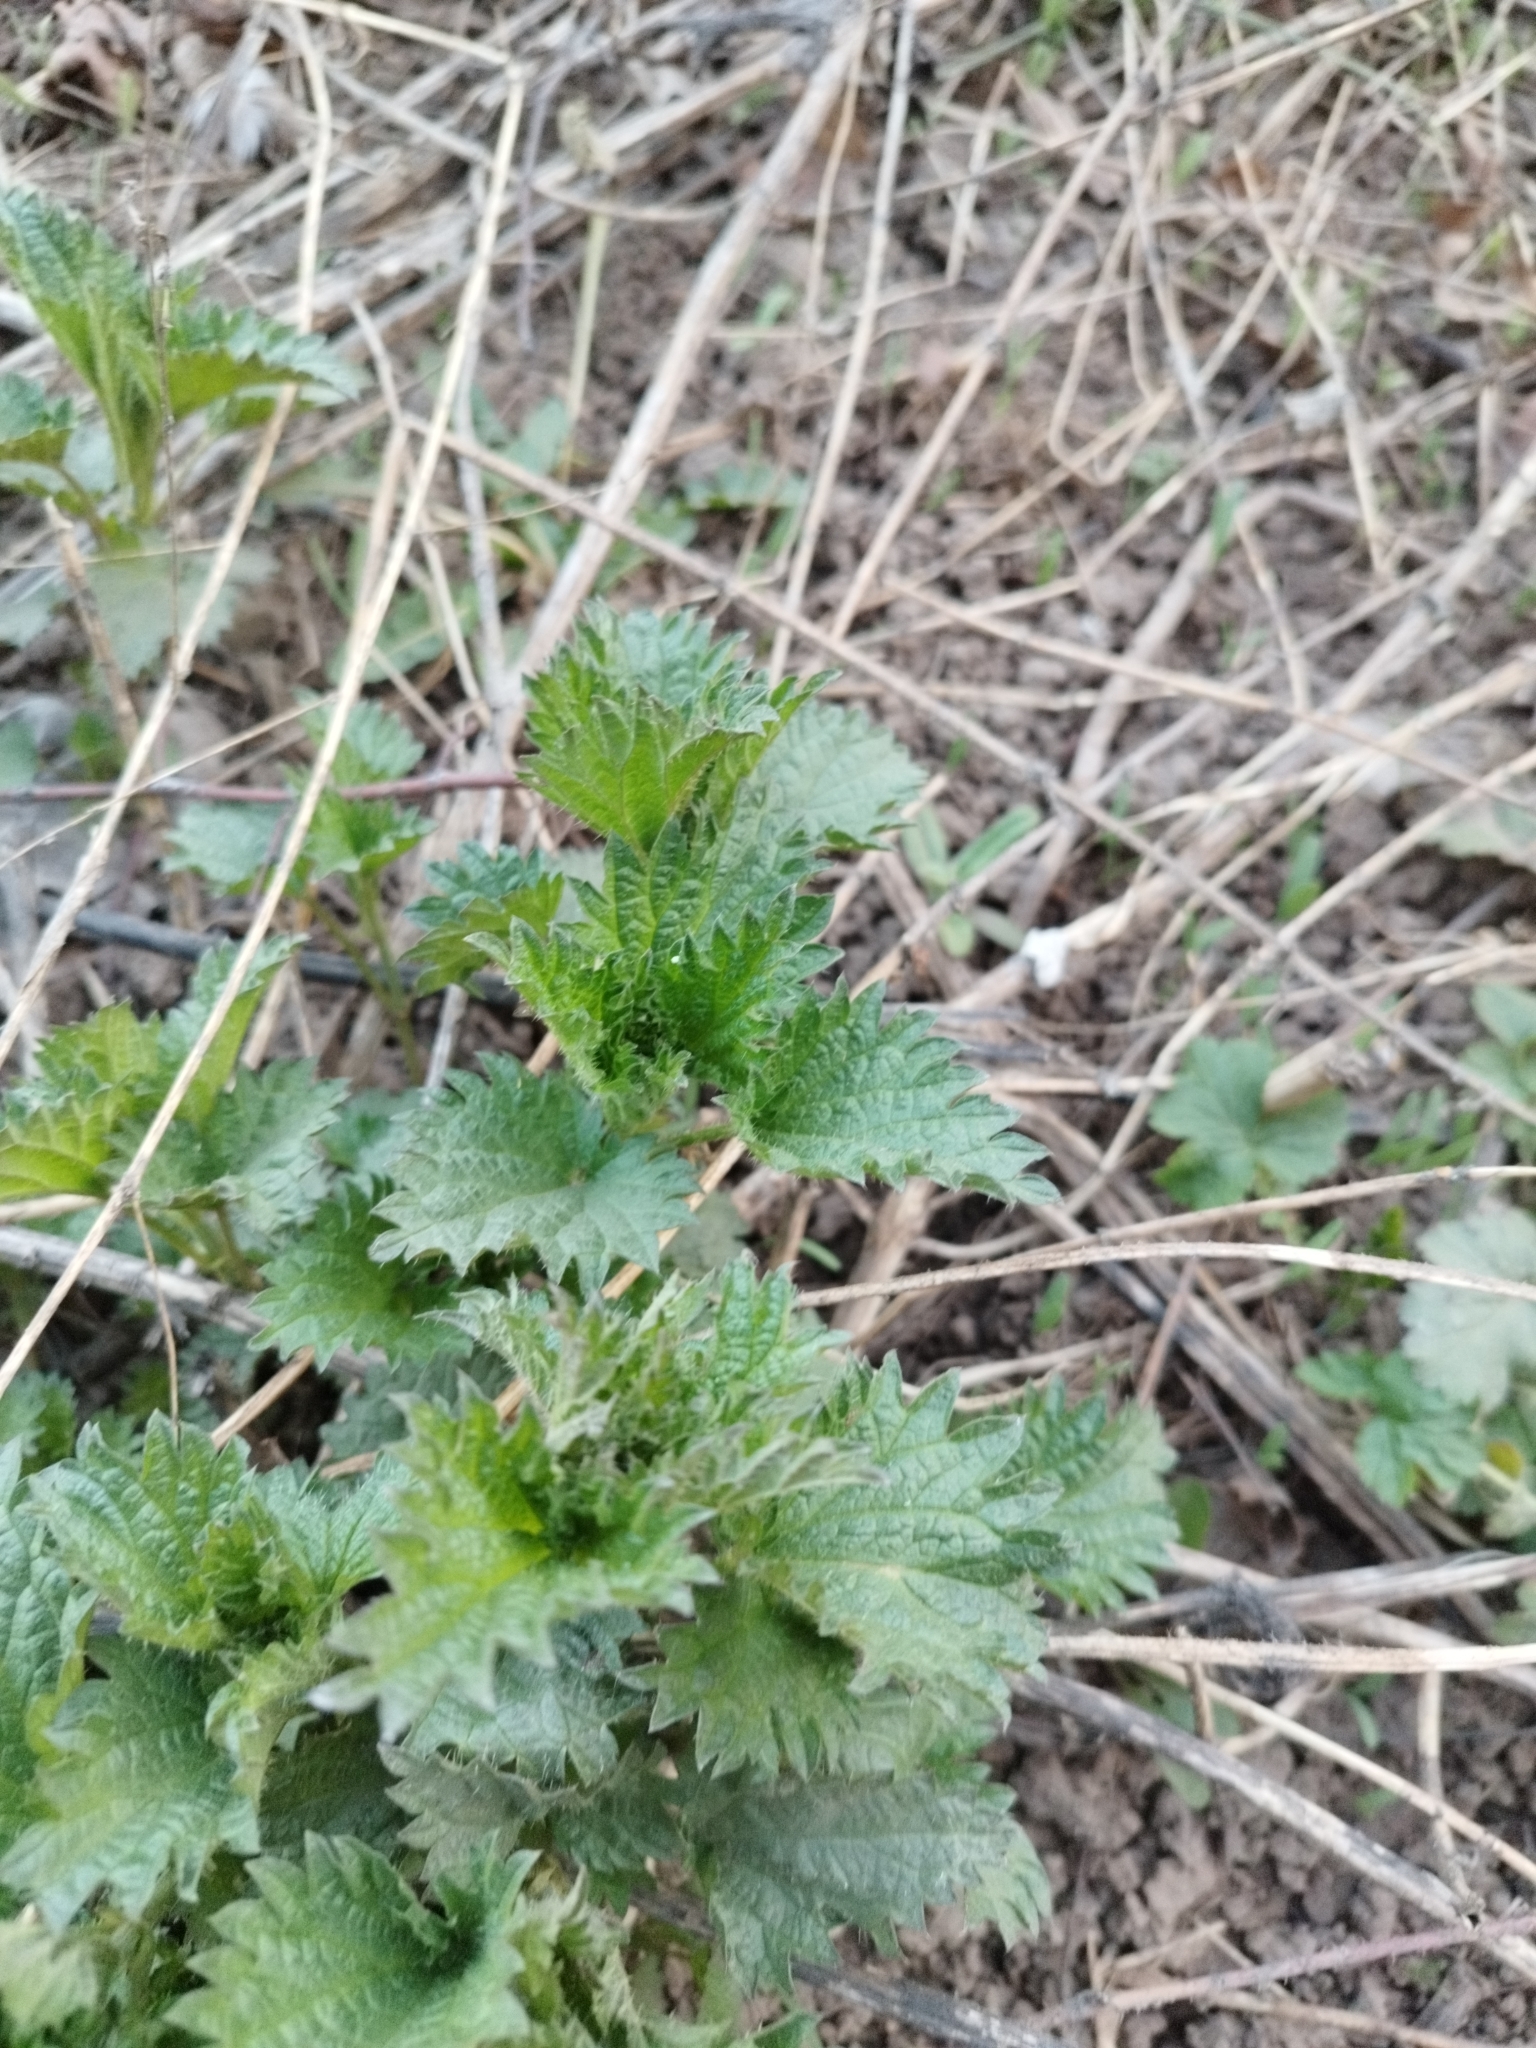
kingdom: Plantae
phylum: Tracheophyta
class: Magnoliopsida
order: Rosales
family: Urticaceae
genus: Urtica
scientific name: Urtica dioica
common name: Common nettle
